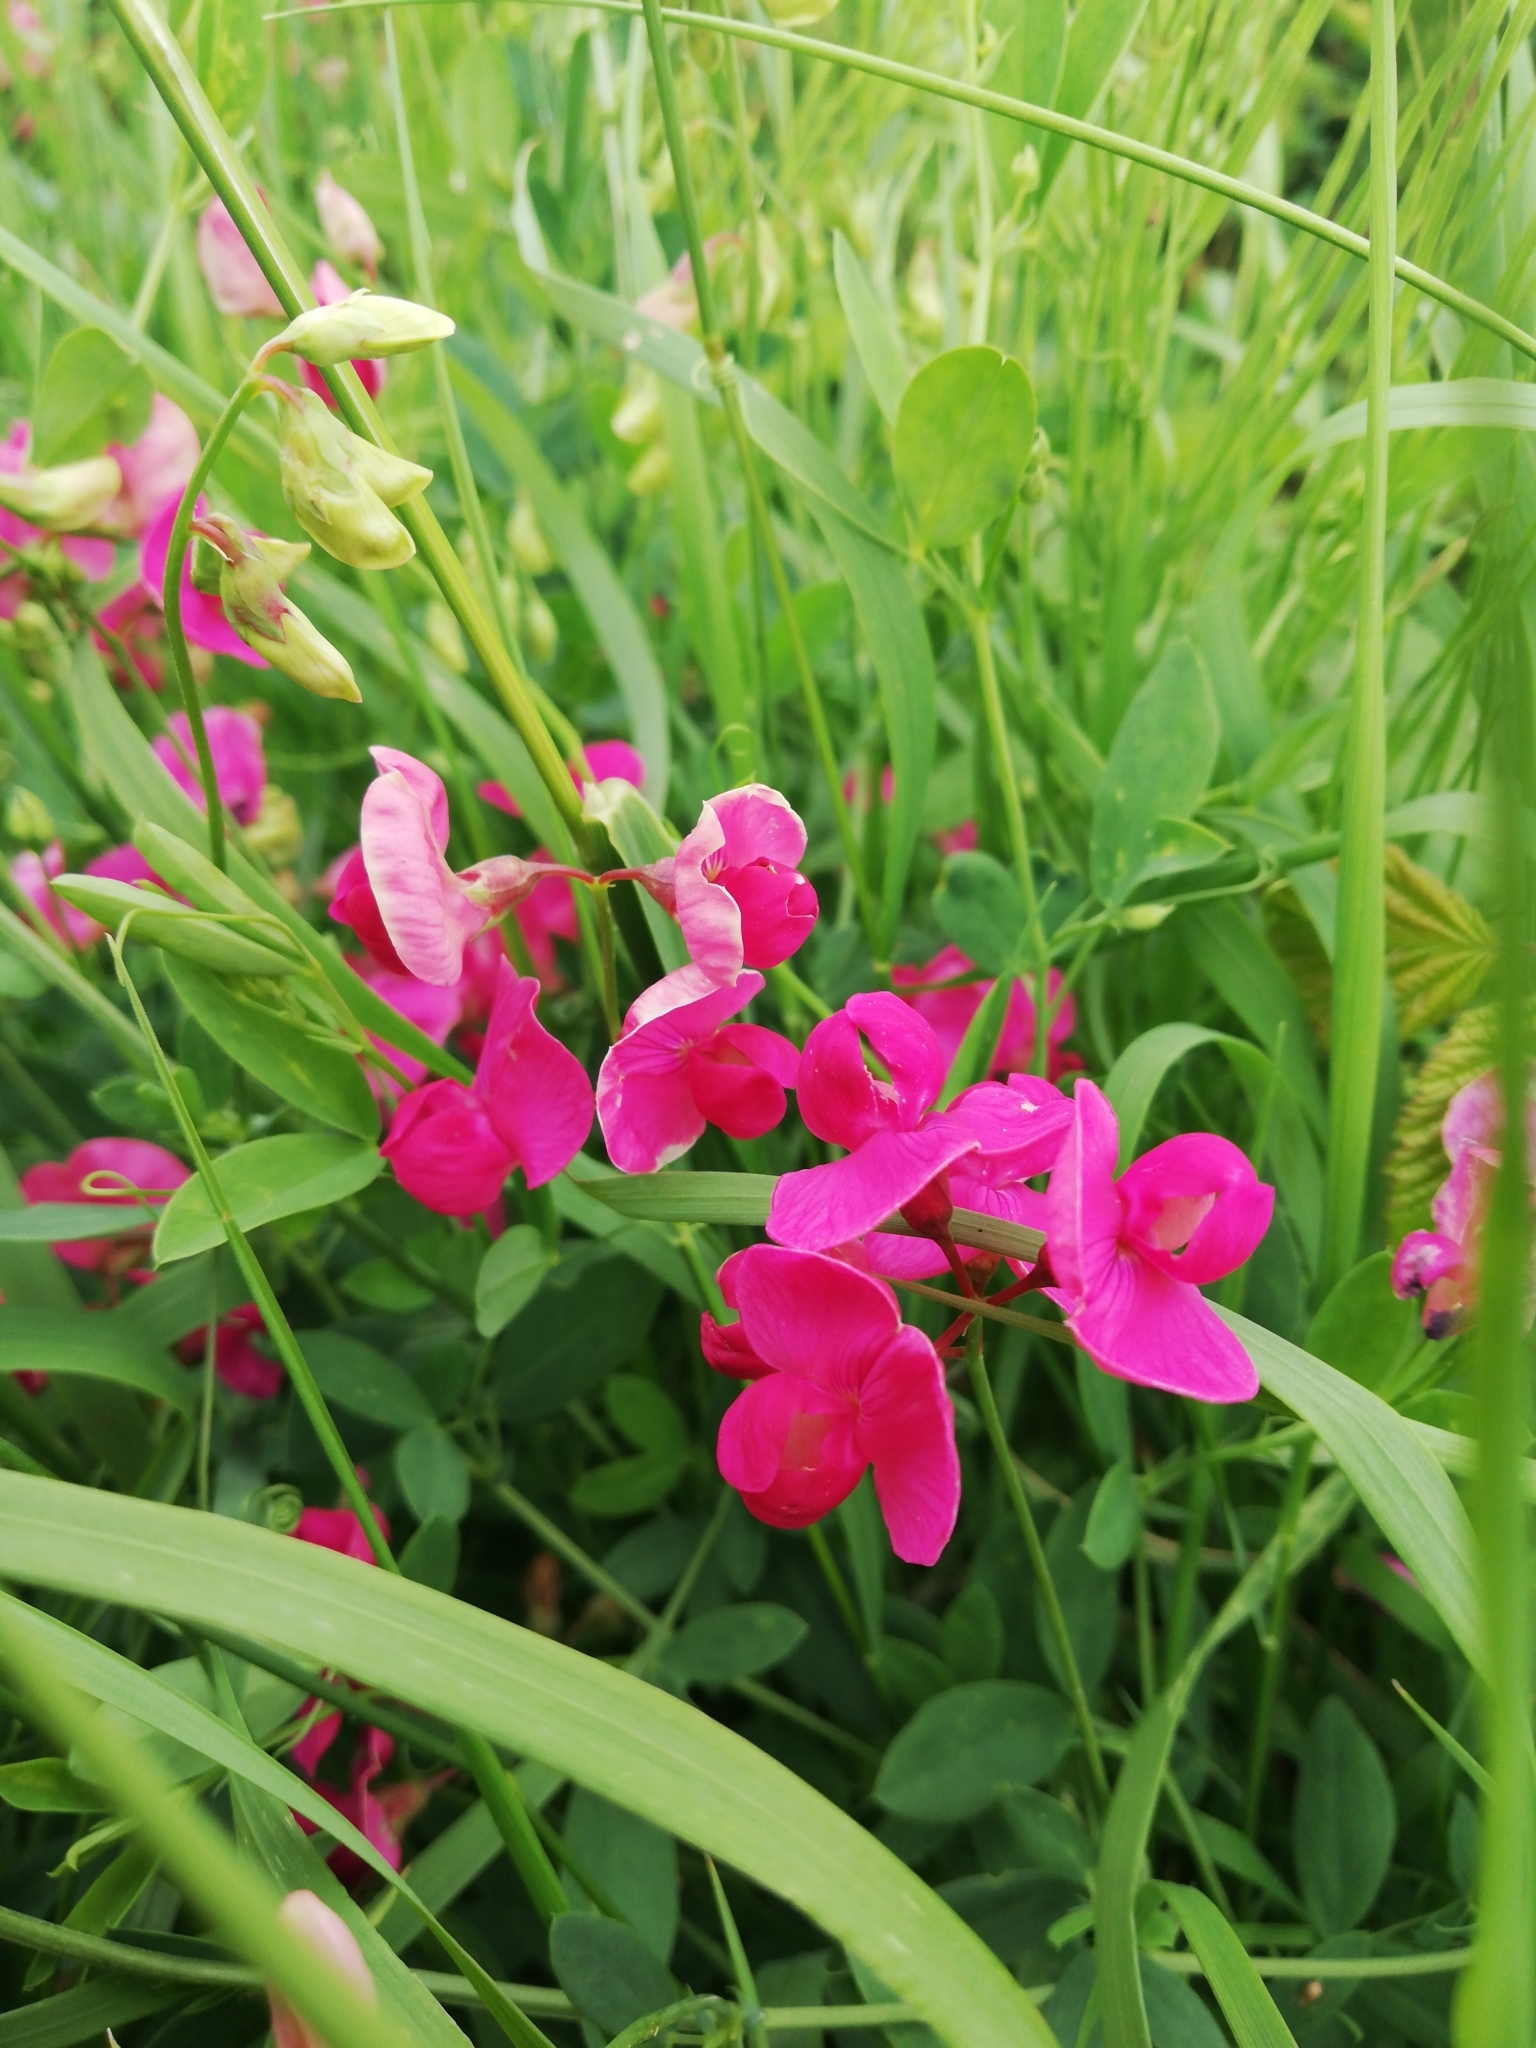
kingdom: Plantae
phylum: Tracheophyta
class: Magnoliopsida
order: Fabales
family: Fabaceae
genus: Lathyrus
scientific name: Lathyrus tuberosus
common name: Tuberous pea
